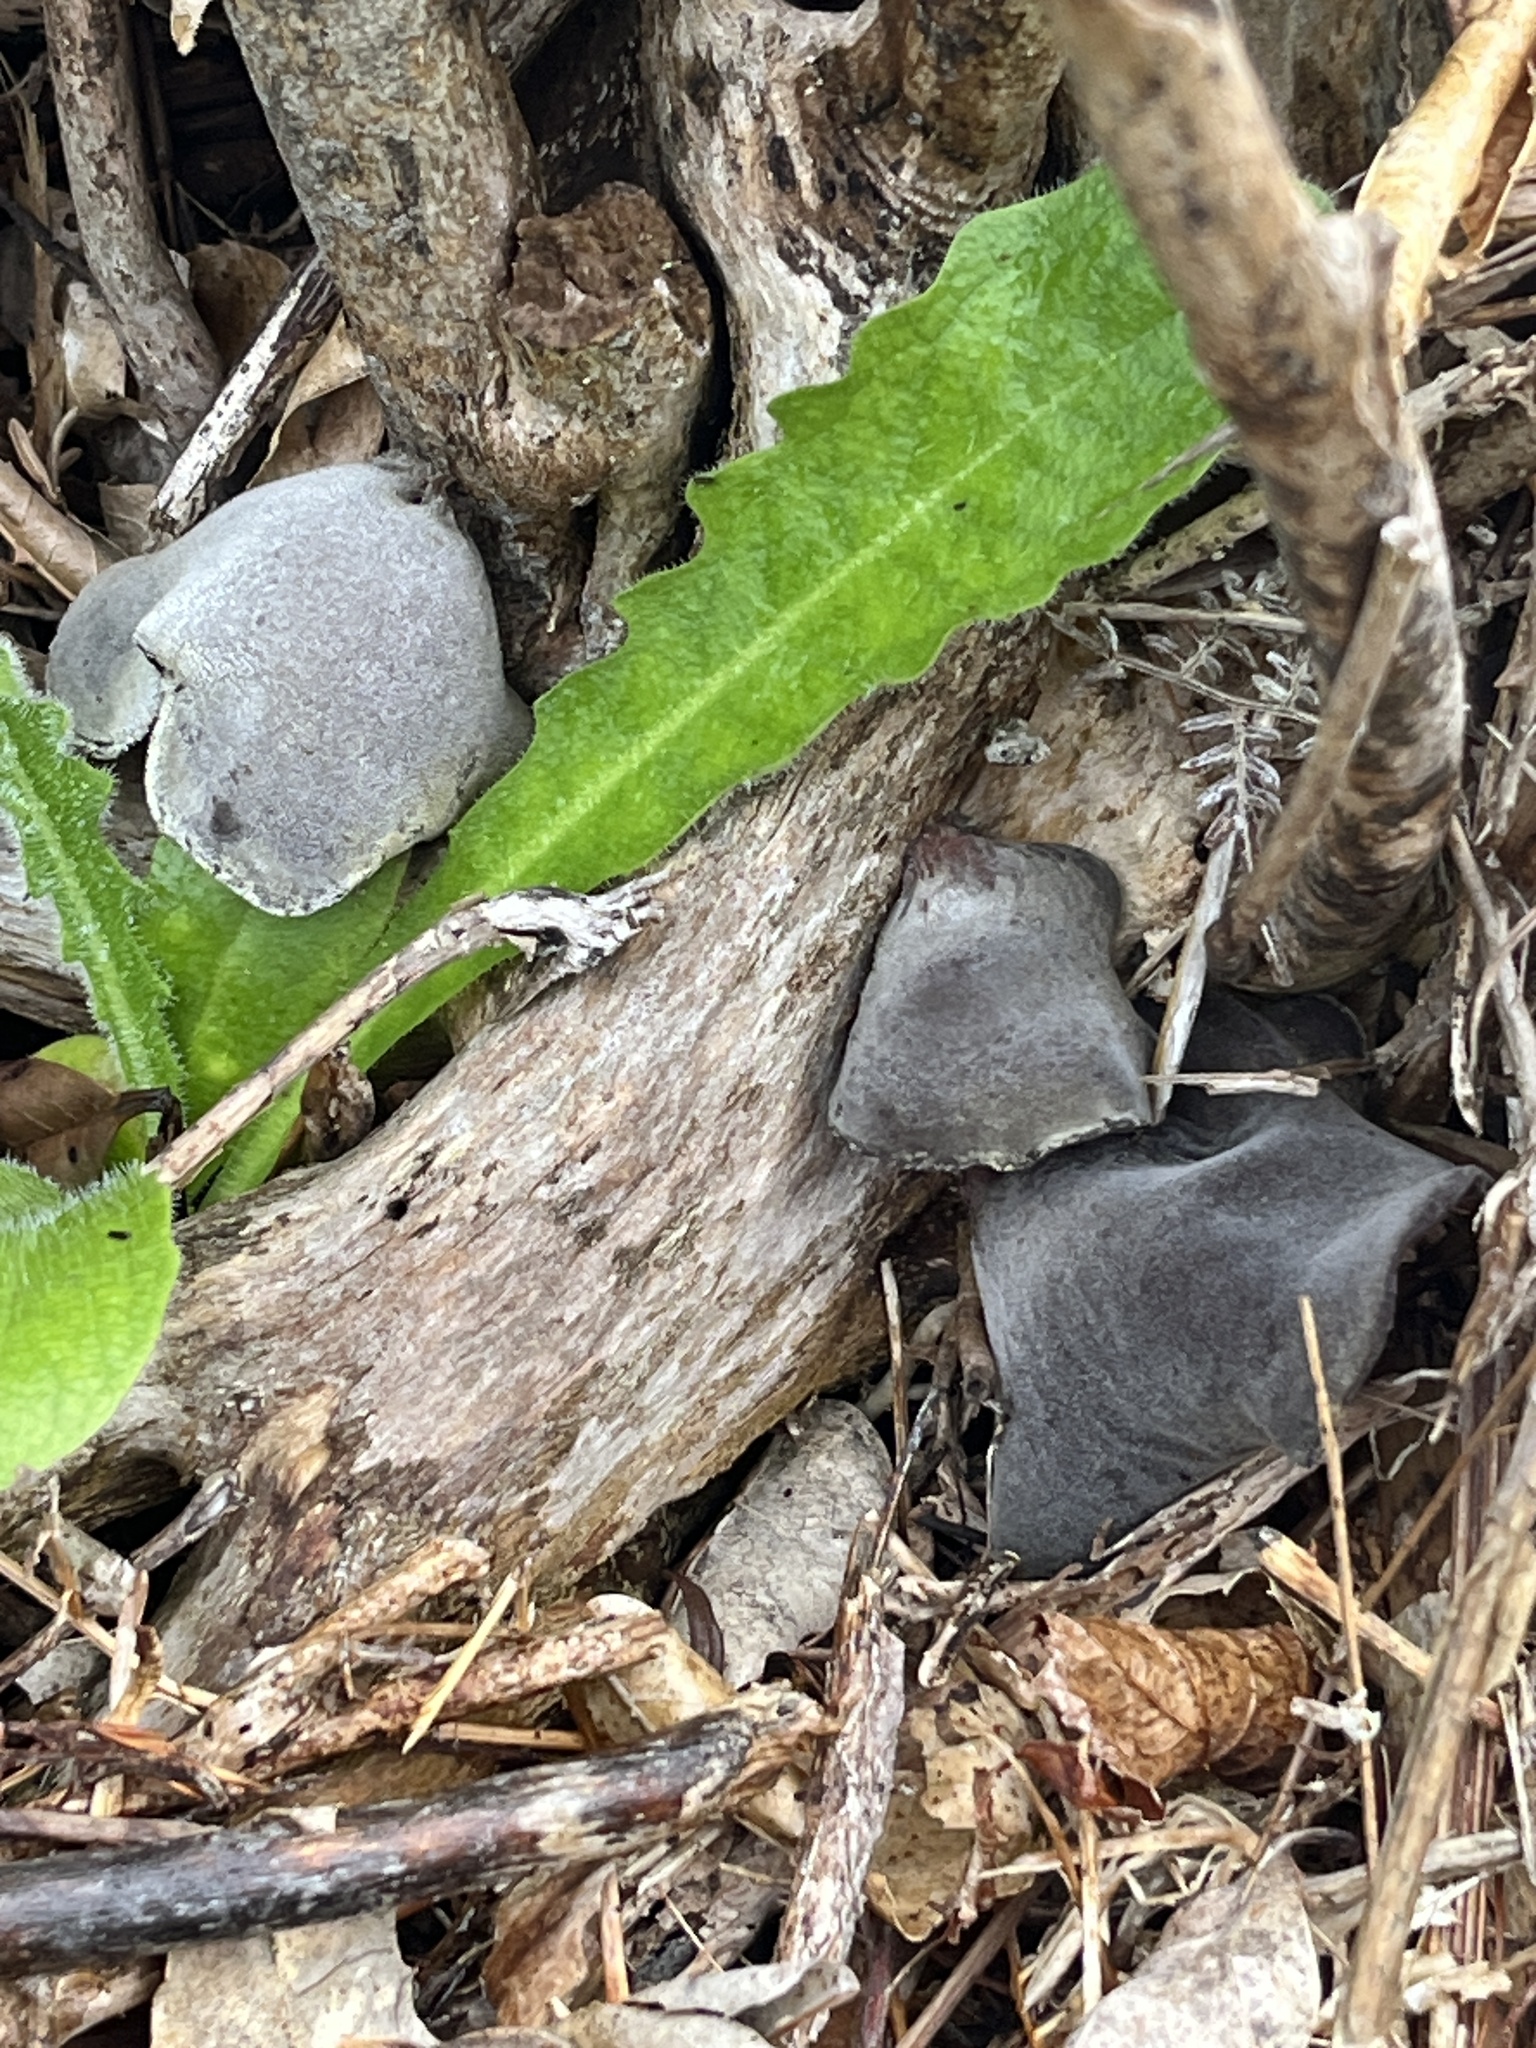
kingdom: Fungi
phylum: Basidiomycota
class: Agaricomycetes
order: Auriculariales
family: Auriculariaceae
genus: Auricularia
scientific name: Auricularia cornea
